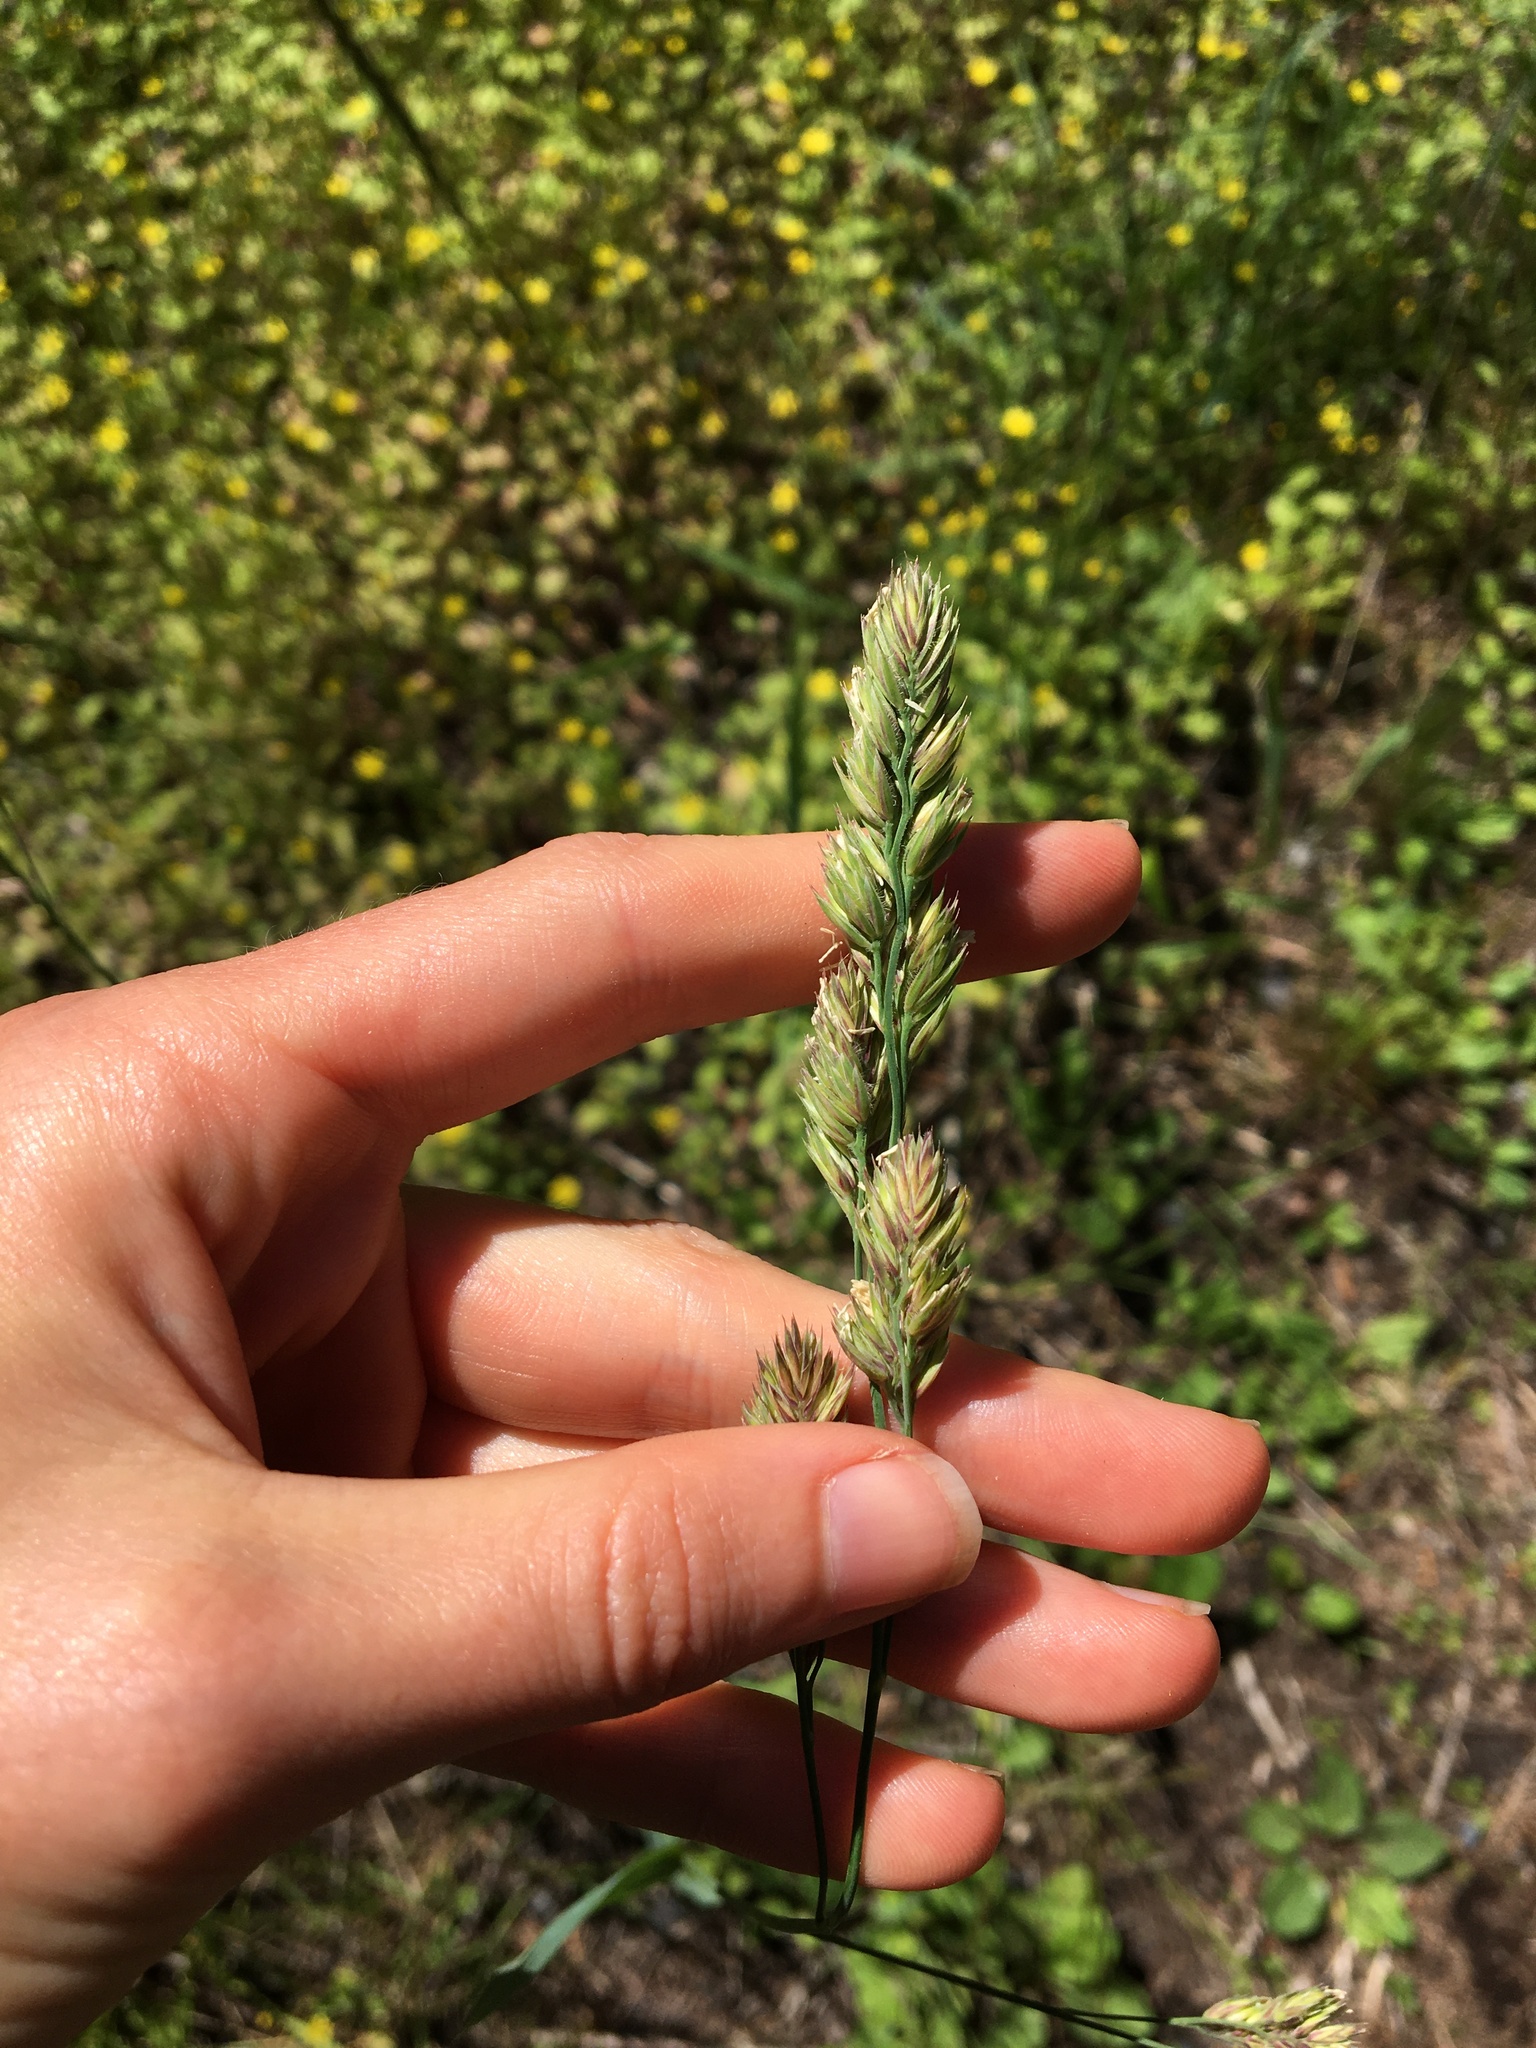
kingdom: Plantae
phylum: Tracheophyta
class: Liliopsida
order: Poales
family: Poaceae
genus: Dactylis
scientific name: Dactylis glomerata
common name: Orchardgrass
